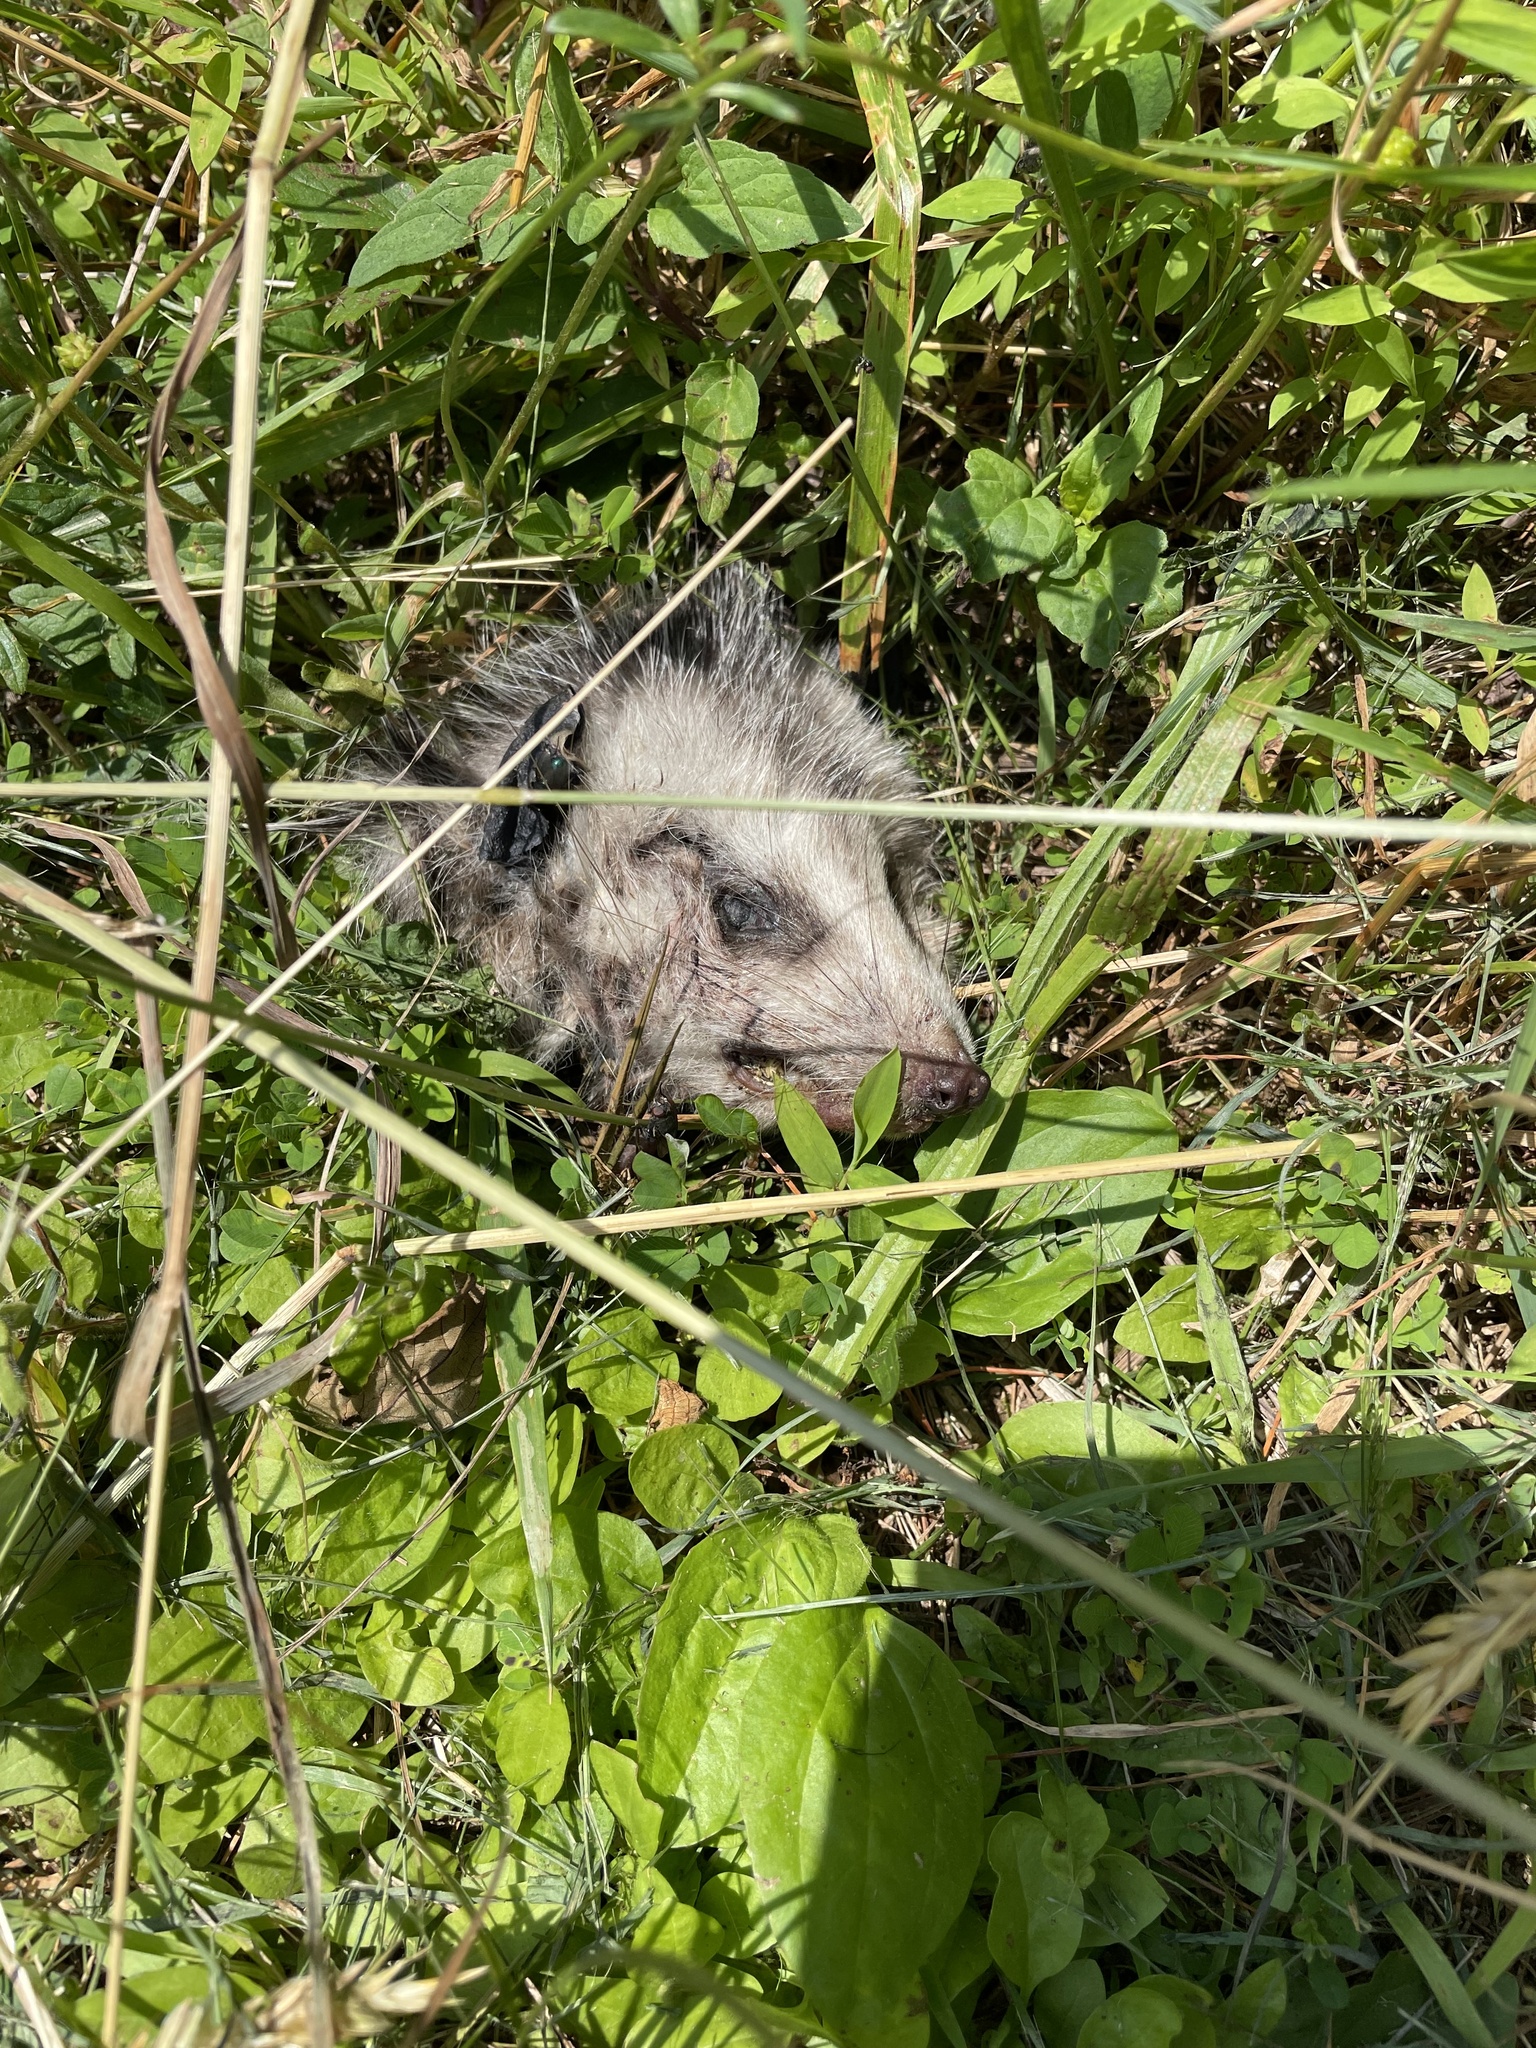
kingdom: Animalia
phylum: Chordata
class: Mammalia
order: Didelphimorphia
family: Didelphidae
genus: Didelphis
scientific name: Didelphis virginiana
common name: Virginia opossum
